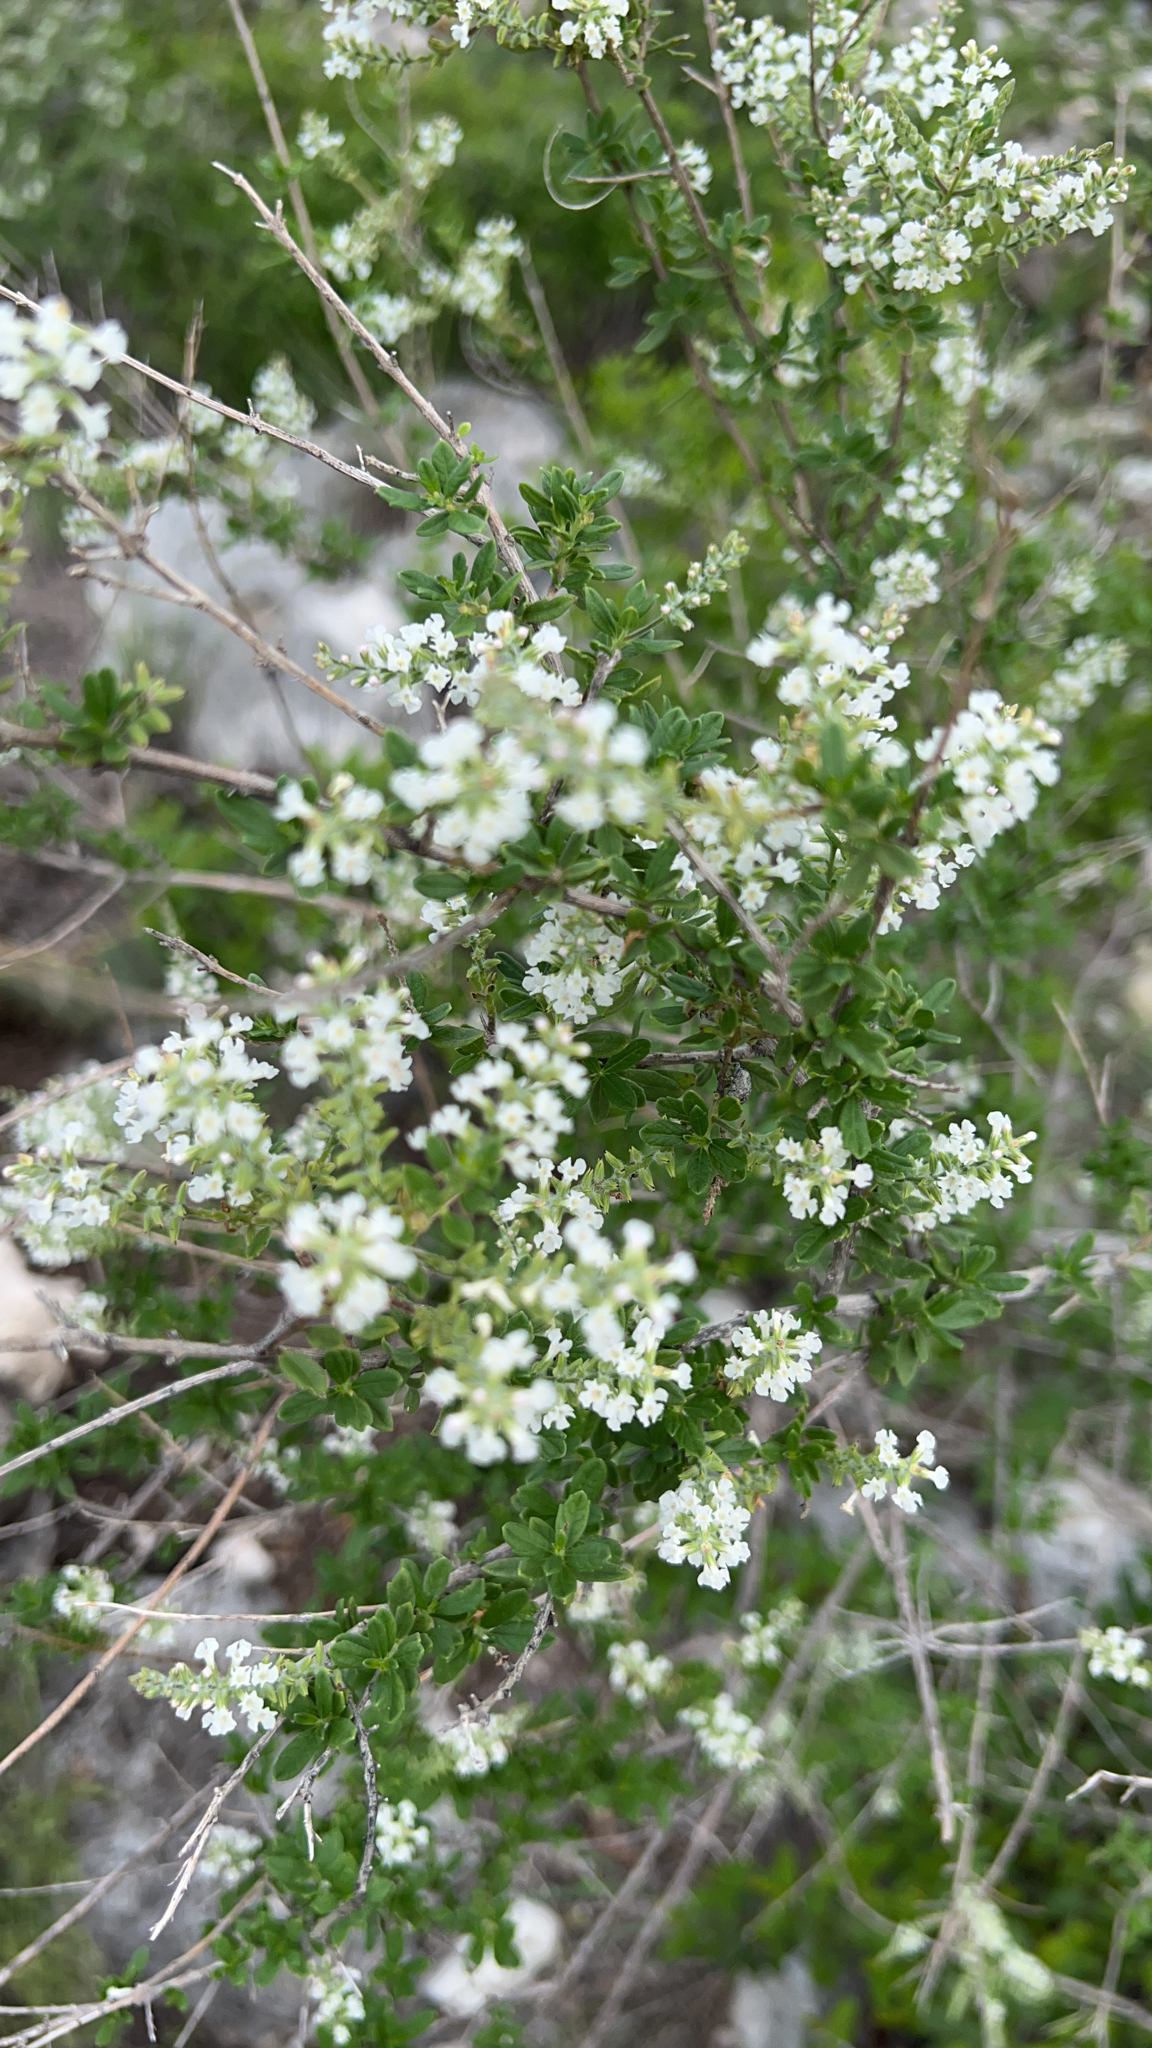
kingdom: Plantae
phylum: Tracheophyta
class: Magnoliopsida
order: Lamiales
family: Verbenaceae
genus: Aloysia
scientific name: Aloysia gratissima
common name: Common bee-brush
